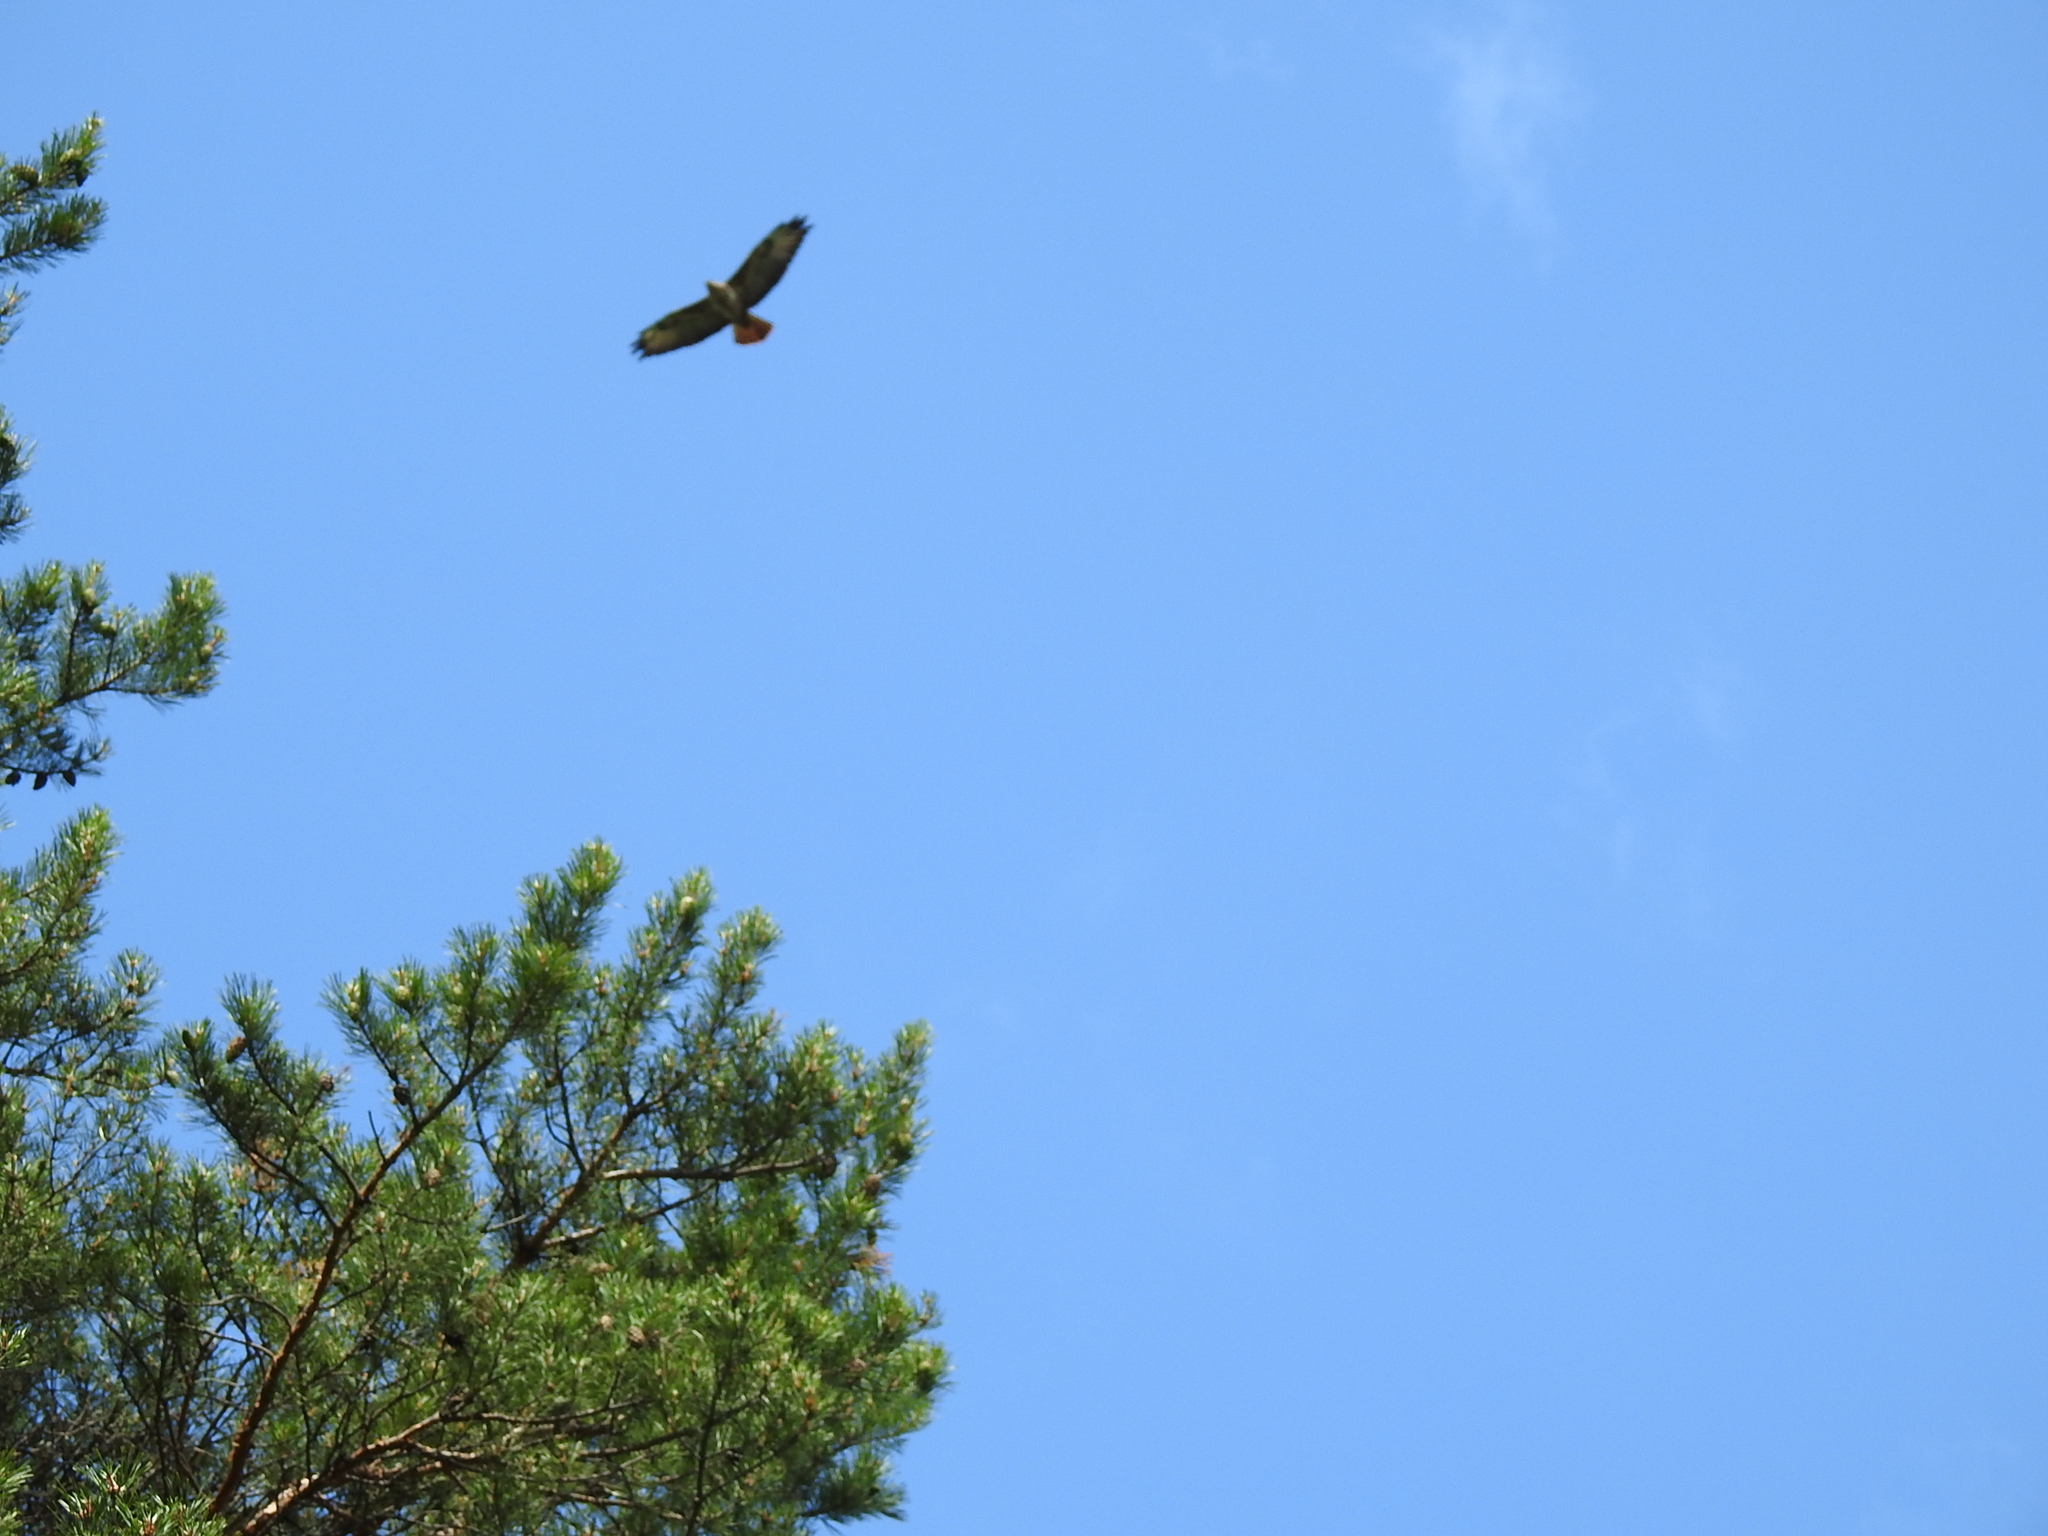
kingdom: Animalia
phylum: Chordata
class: Aves
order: Accipitriformes
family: Accipitridae
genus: Pernis
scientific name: Pernis apivorus
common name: European honey buzzard
